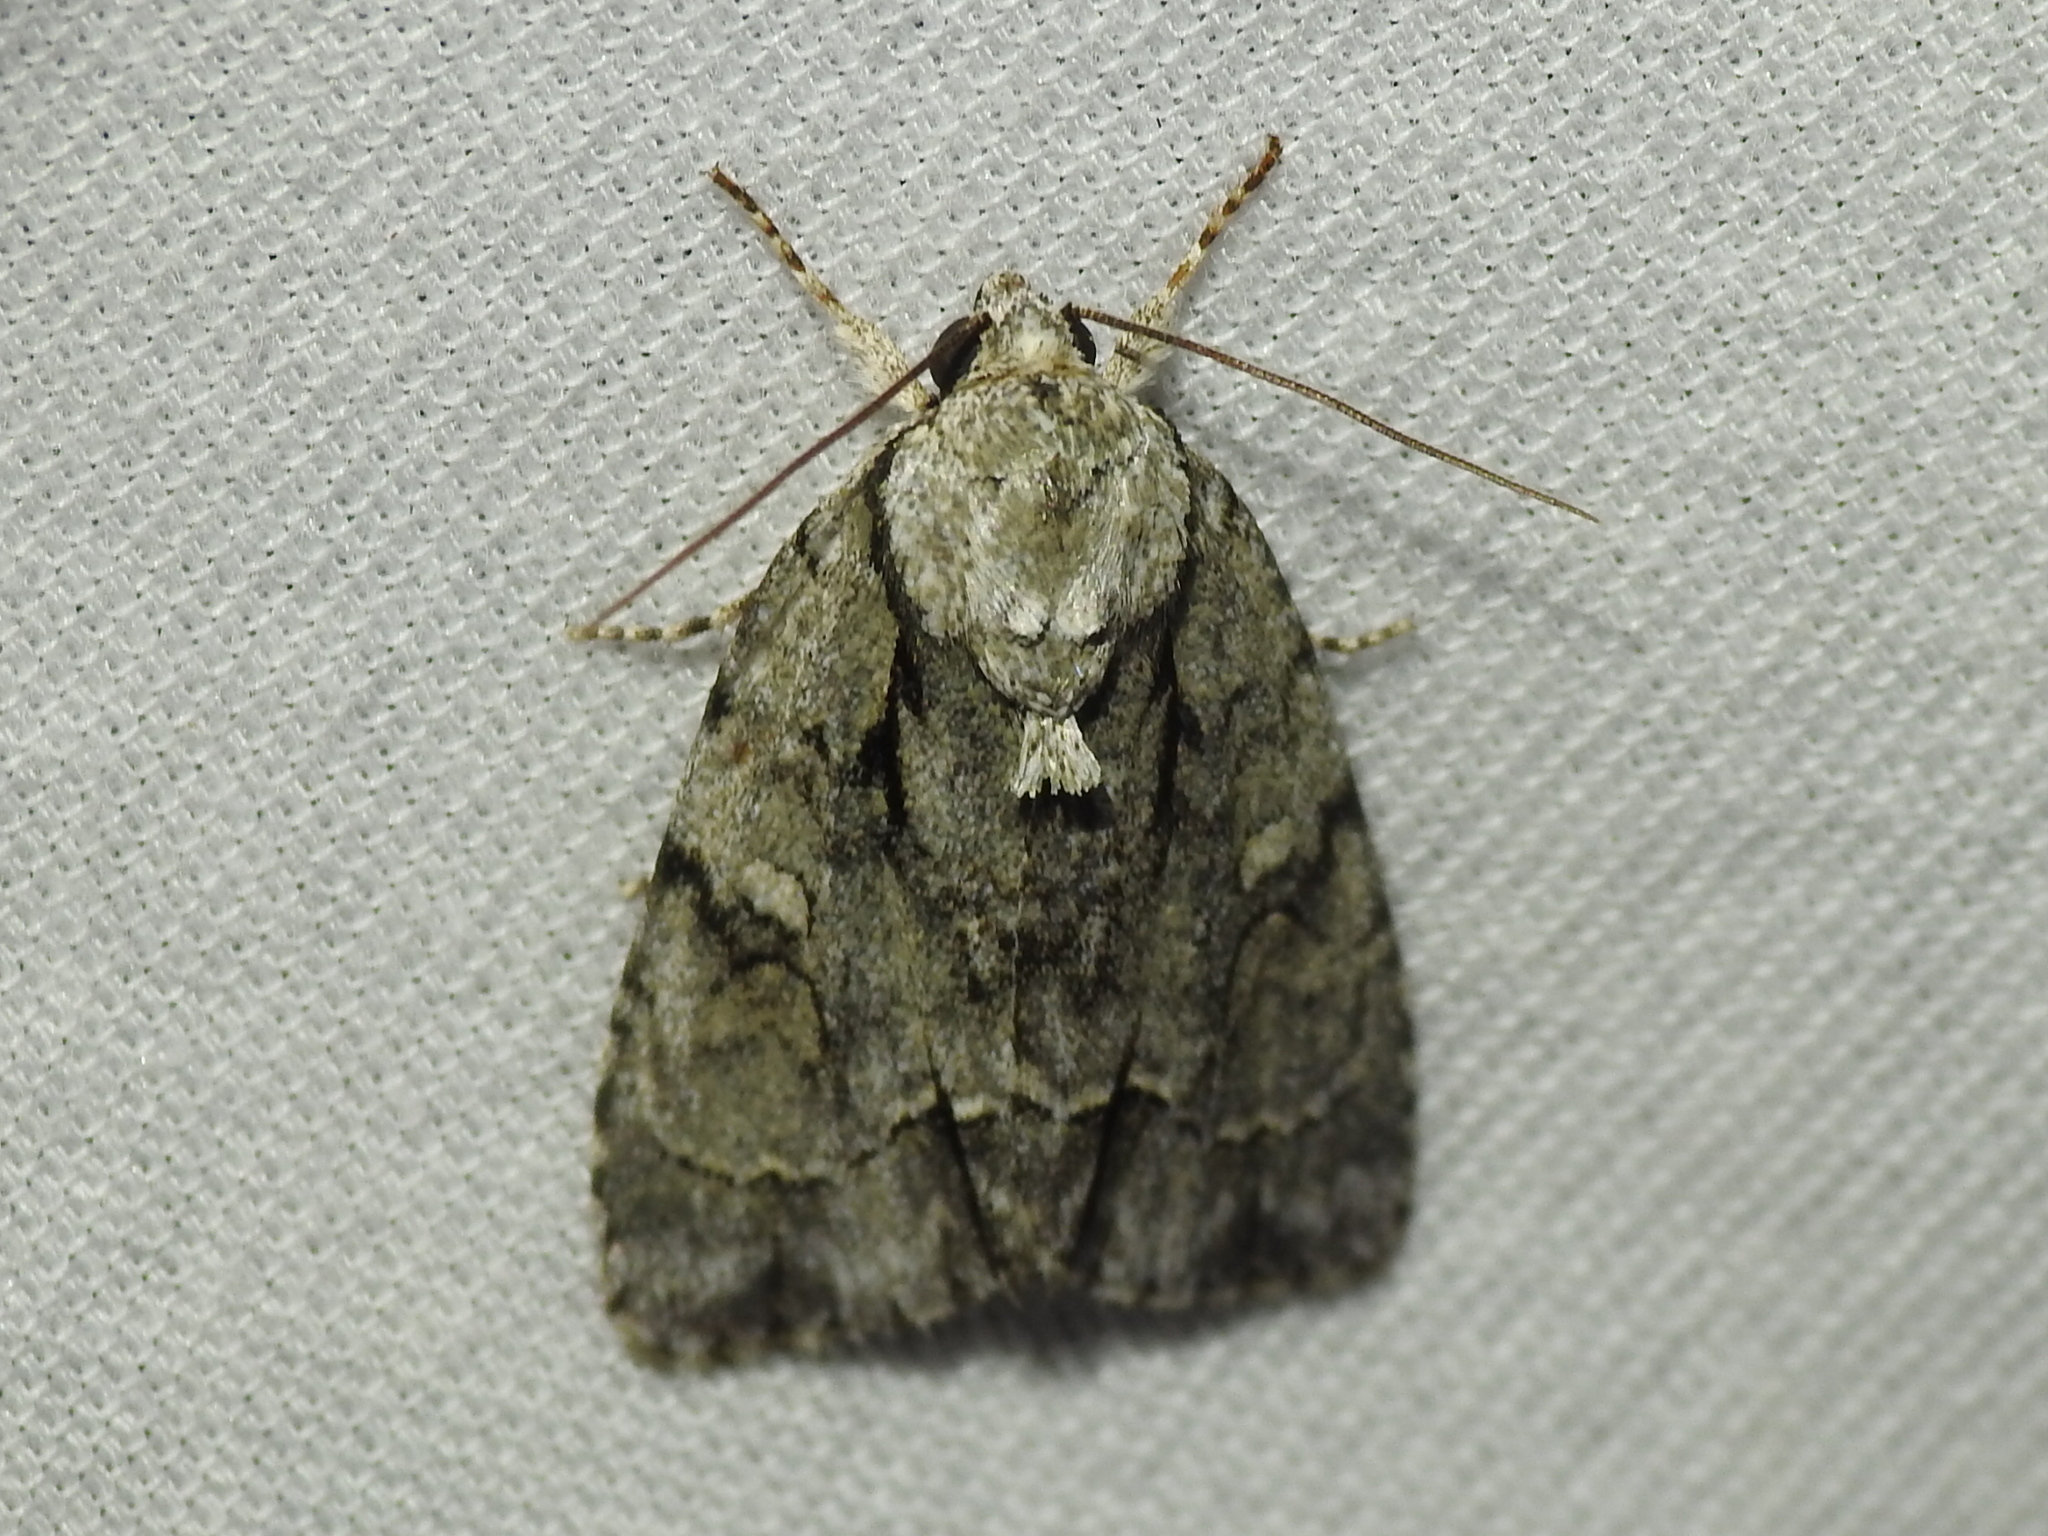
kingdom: Animalia
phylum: Arthropoda
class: Insecta
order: Lepidoptera
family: Noctuidae
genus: Acronicta
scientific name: Acronicta vinnula
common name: Delightful dagger
